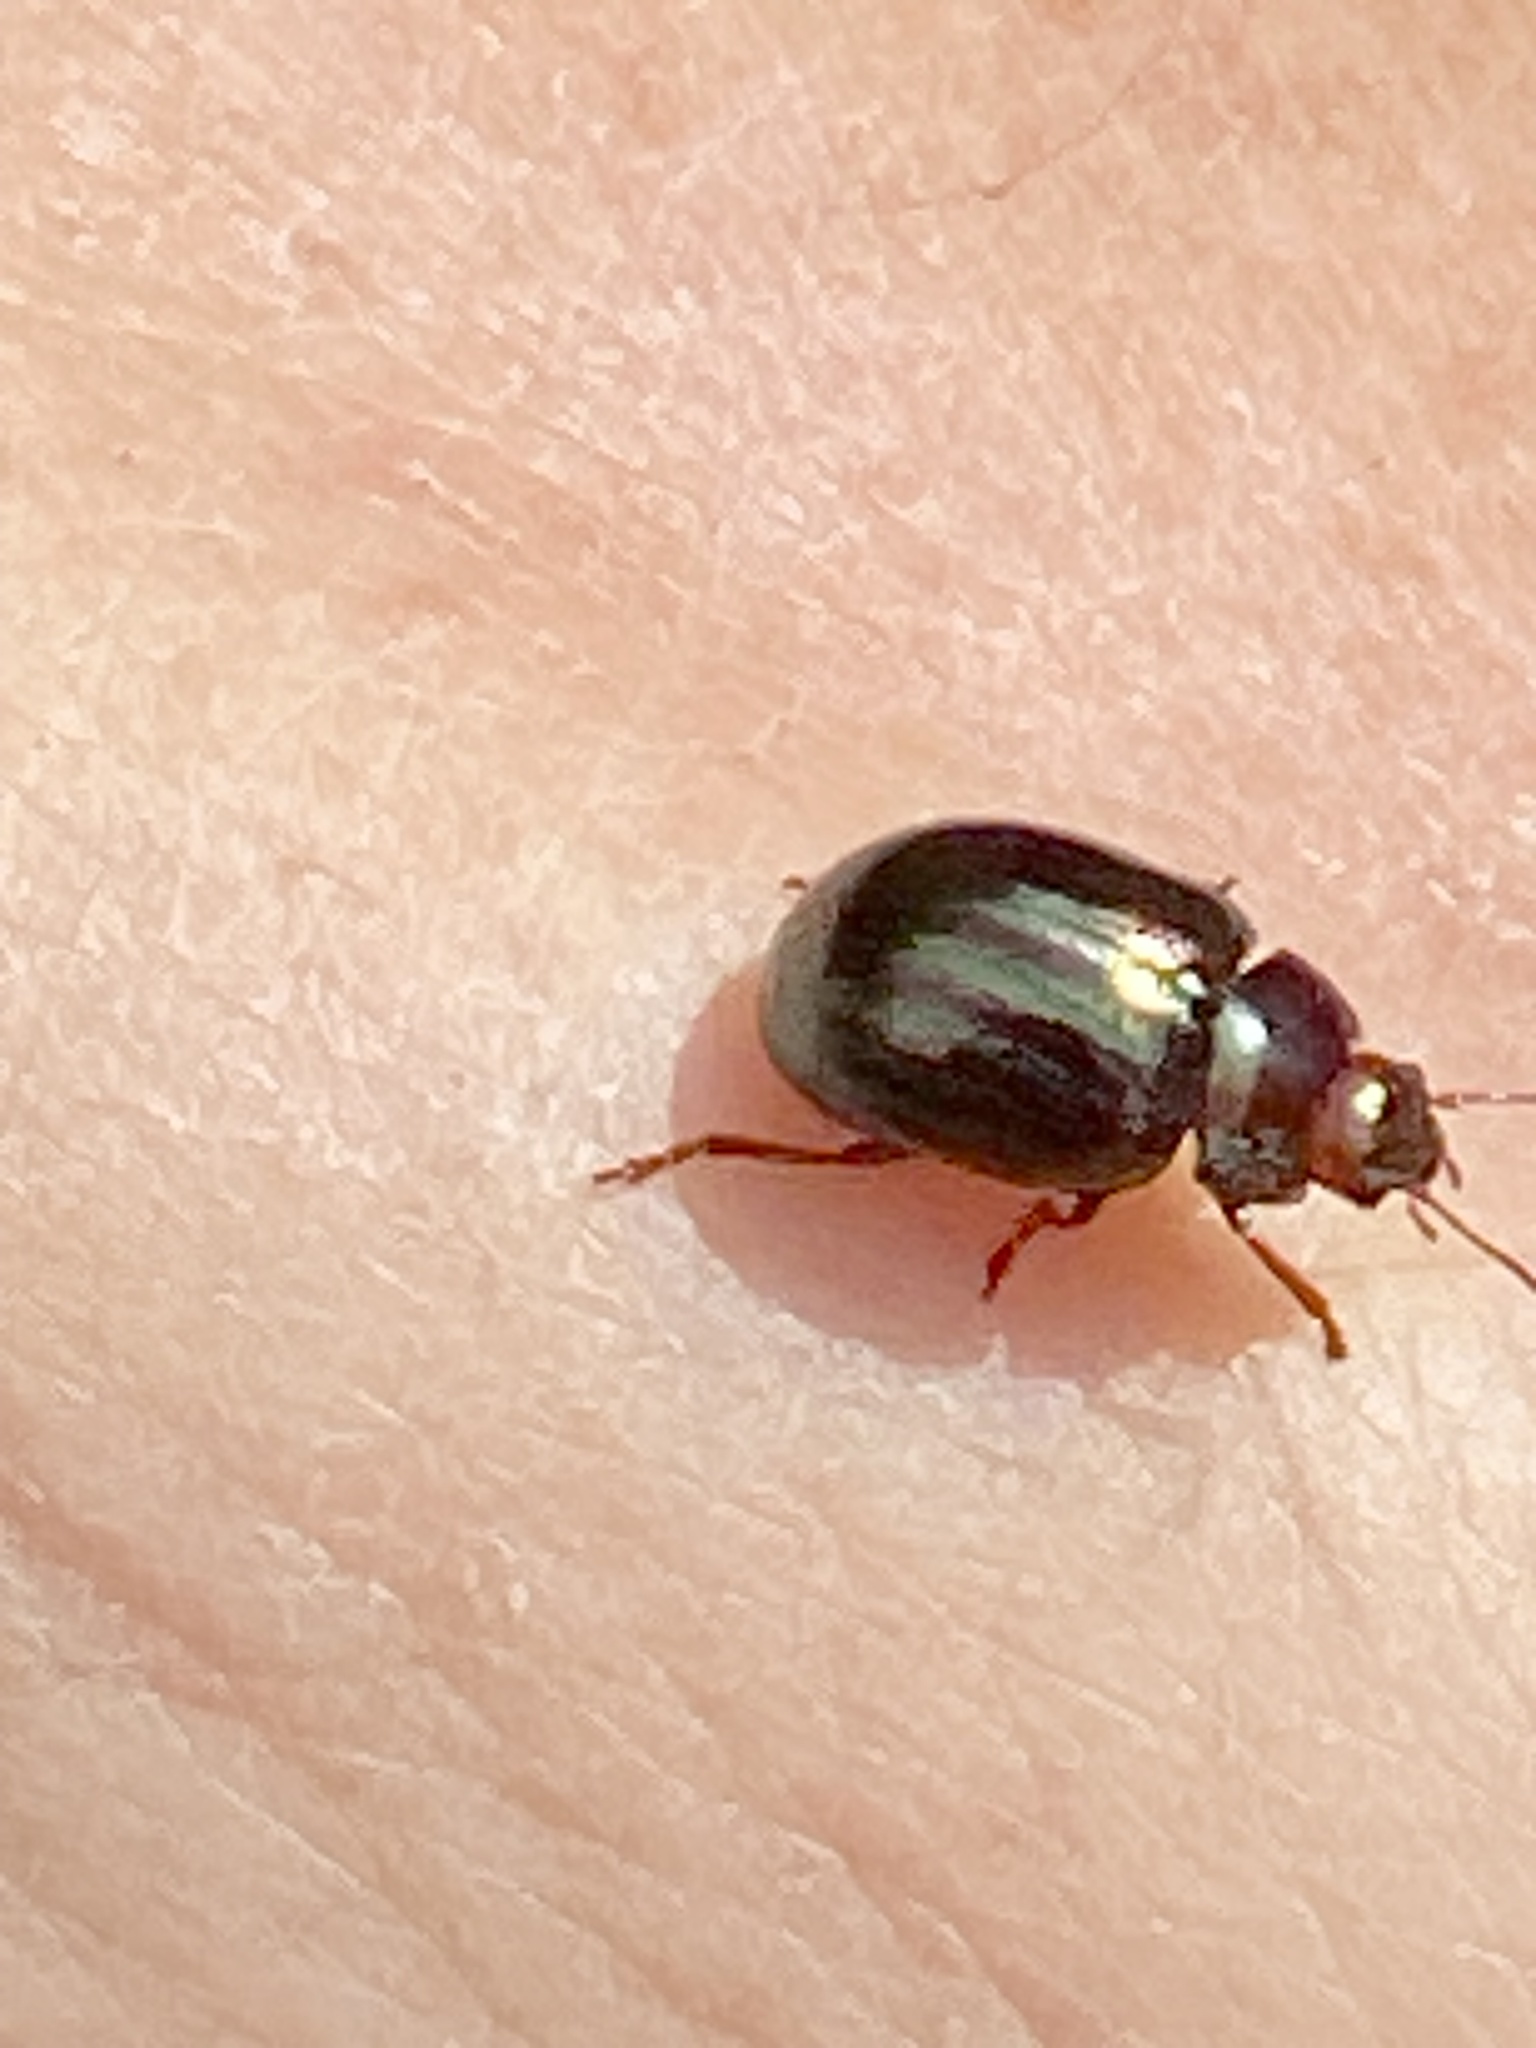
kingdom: Animalia
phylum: Arthropoda
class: Insecta
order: Coleoptera
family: Chrysomelidae
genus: Chrysolina
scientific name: Chrysolina americana
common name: Rosemary beetle
